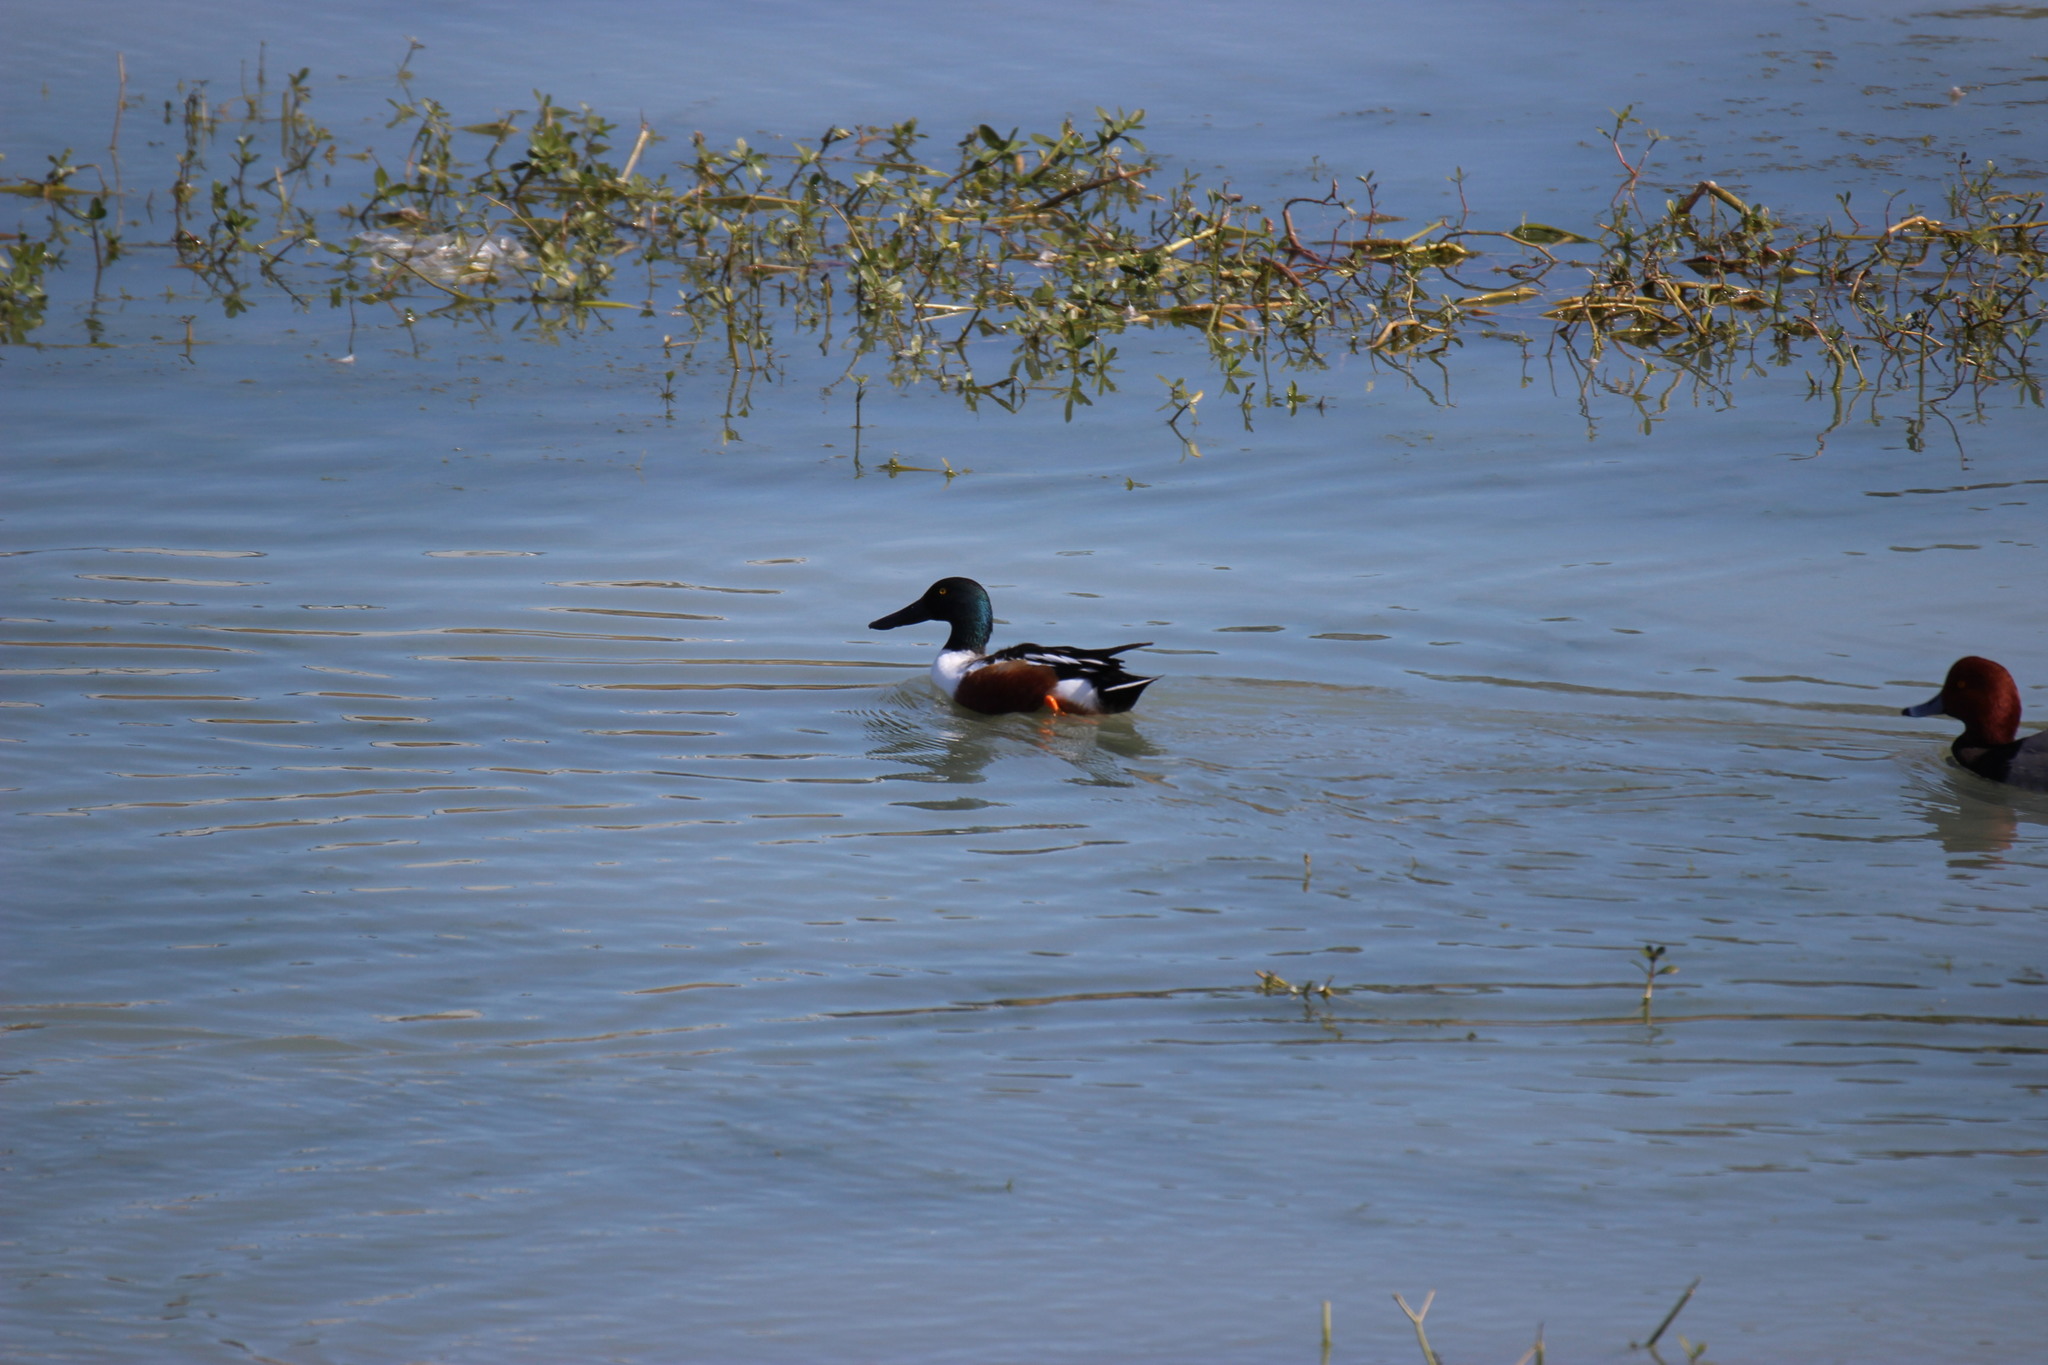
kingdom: Animalia
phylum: Chordata
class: Aves
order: Anseriformes
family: Anatidae
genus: Spatula
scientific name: Spatula clypeata
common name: Northern shoveler
